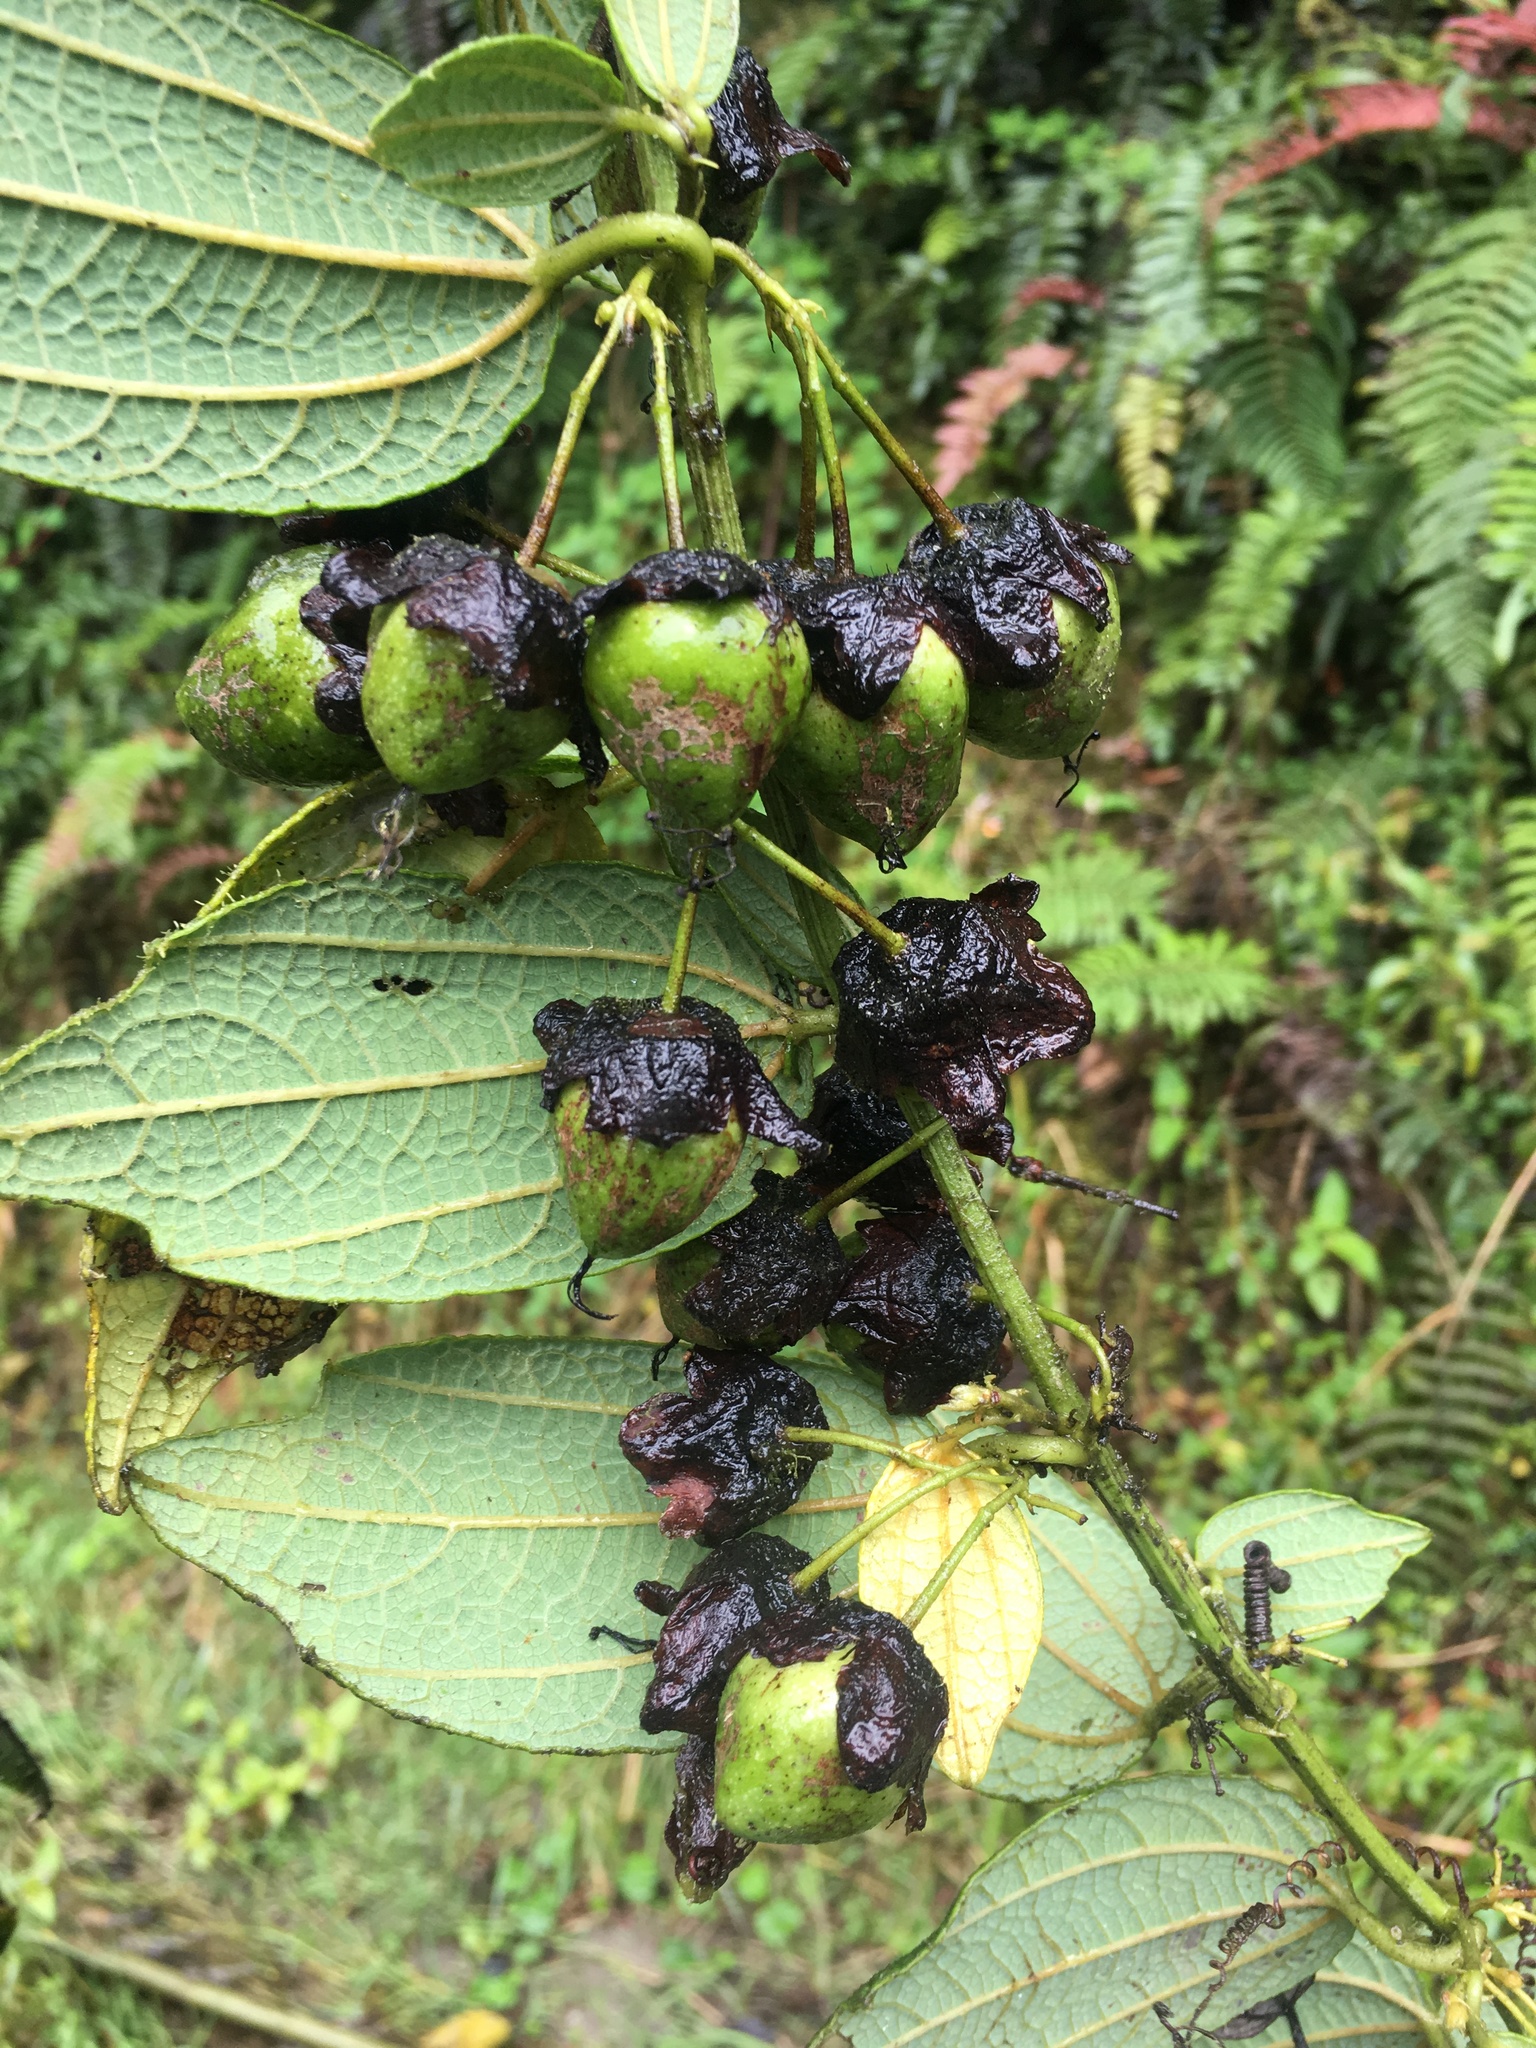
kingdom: Plantae
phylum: Tracheophyta
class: Magnoliopsida
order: Malpighiales
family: Passifloraceae
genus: Passiflora
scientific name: Passiflora kumandayi
